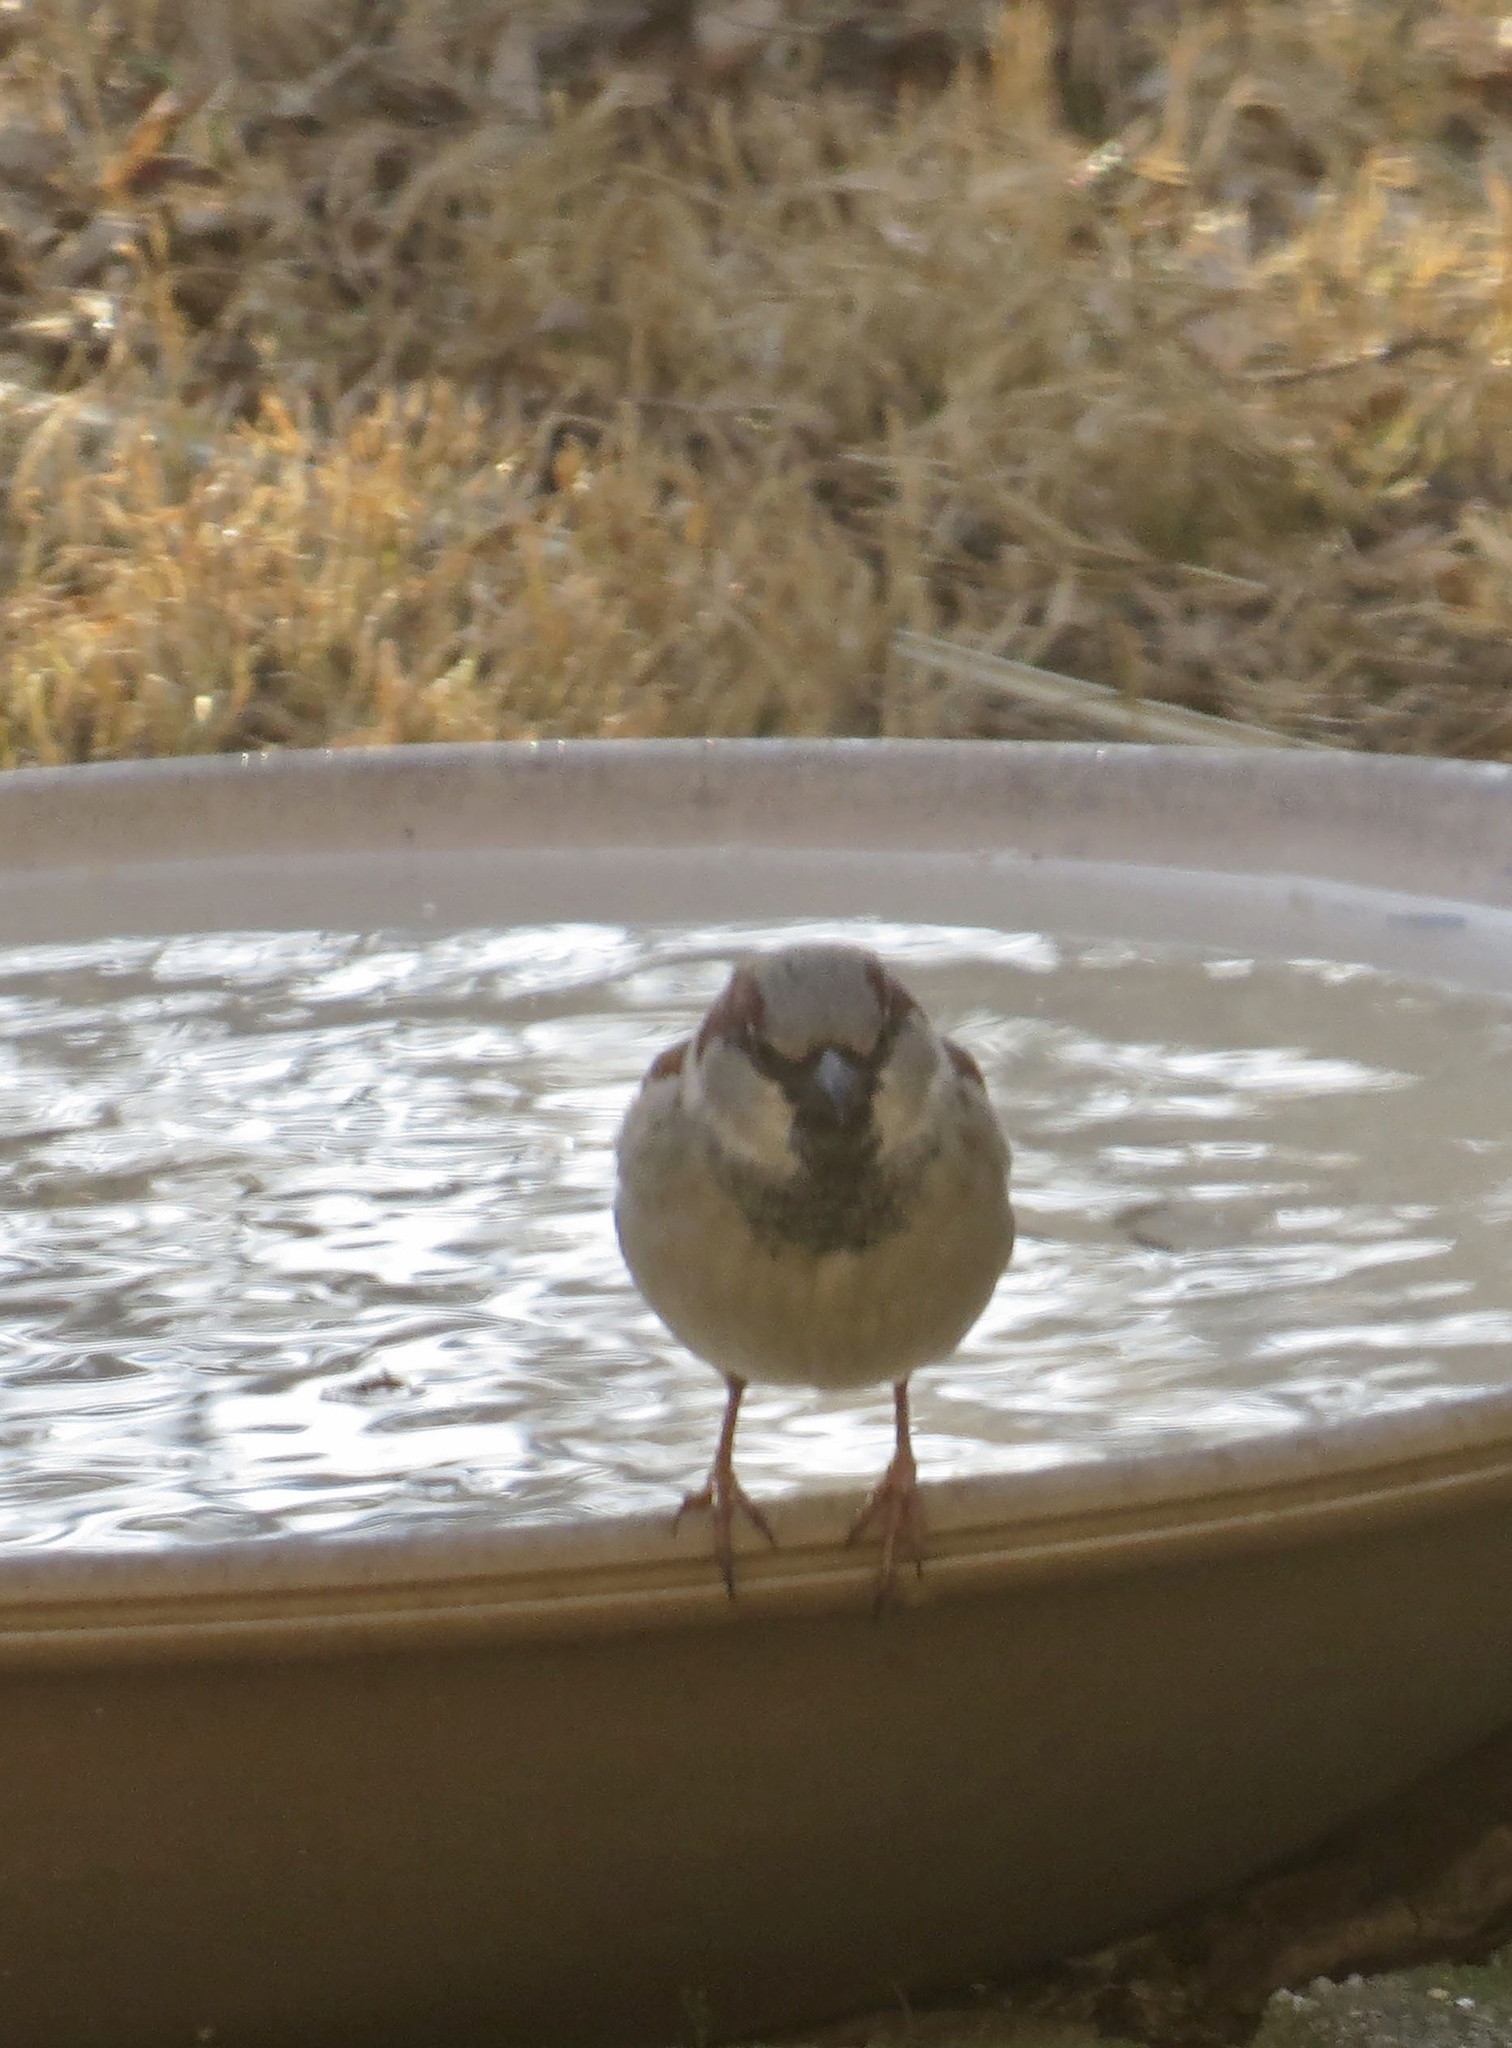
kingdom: Animalia
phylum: Chordata
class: Aves
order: Passeriformes
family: Passeridae
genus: Passer
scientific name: Passer domesticus
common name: House sparrow
